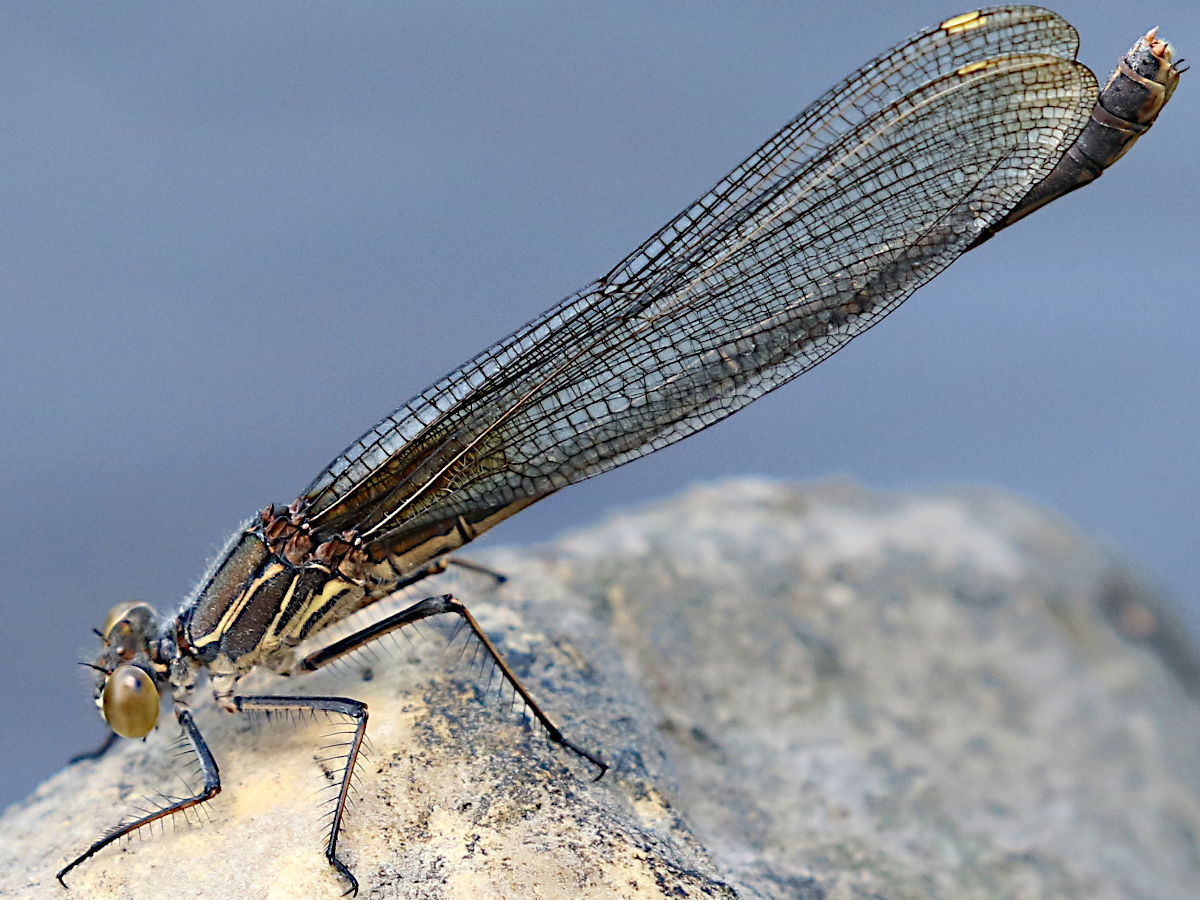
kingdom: Animalia
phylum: Arthropoda
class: Insecta
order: Odonata
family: Calopterygidae
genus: Hetaerina
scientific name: Hetaerina americana
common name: American rubyspot
